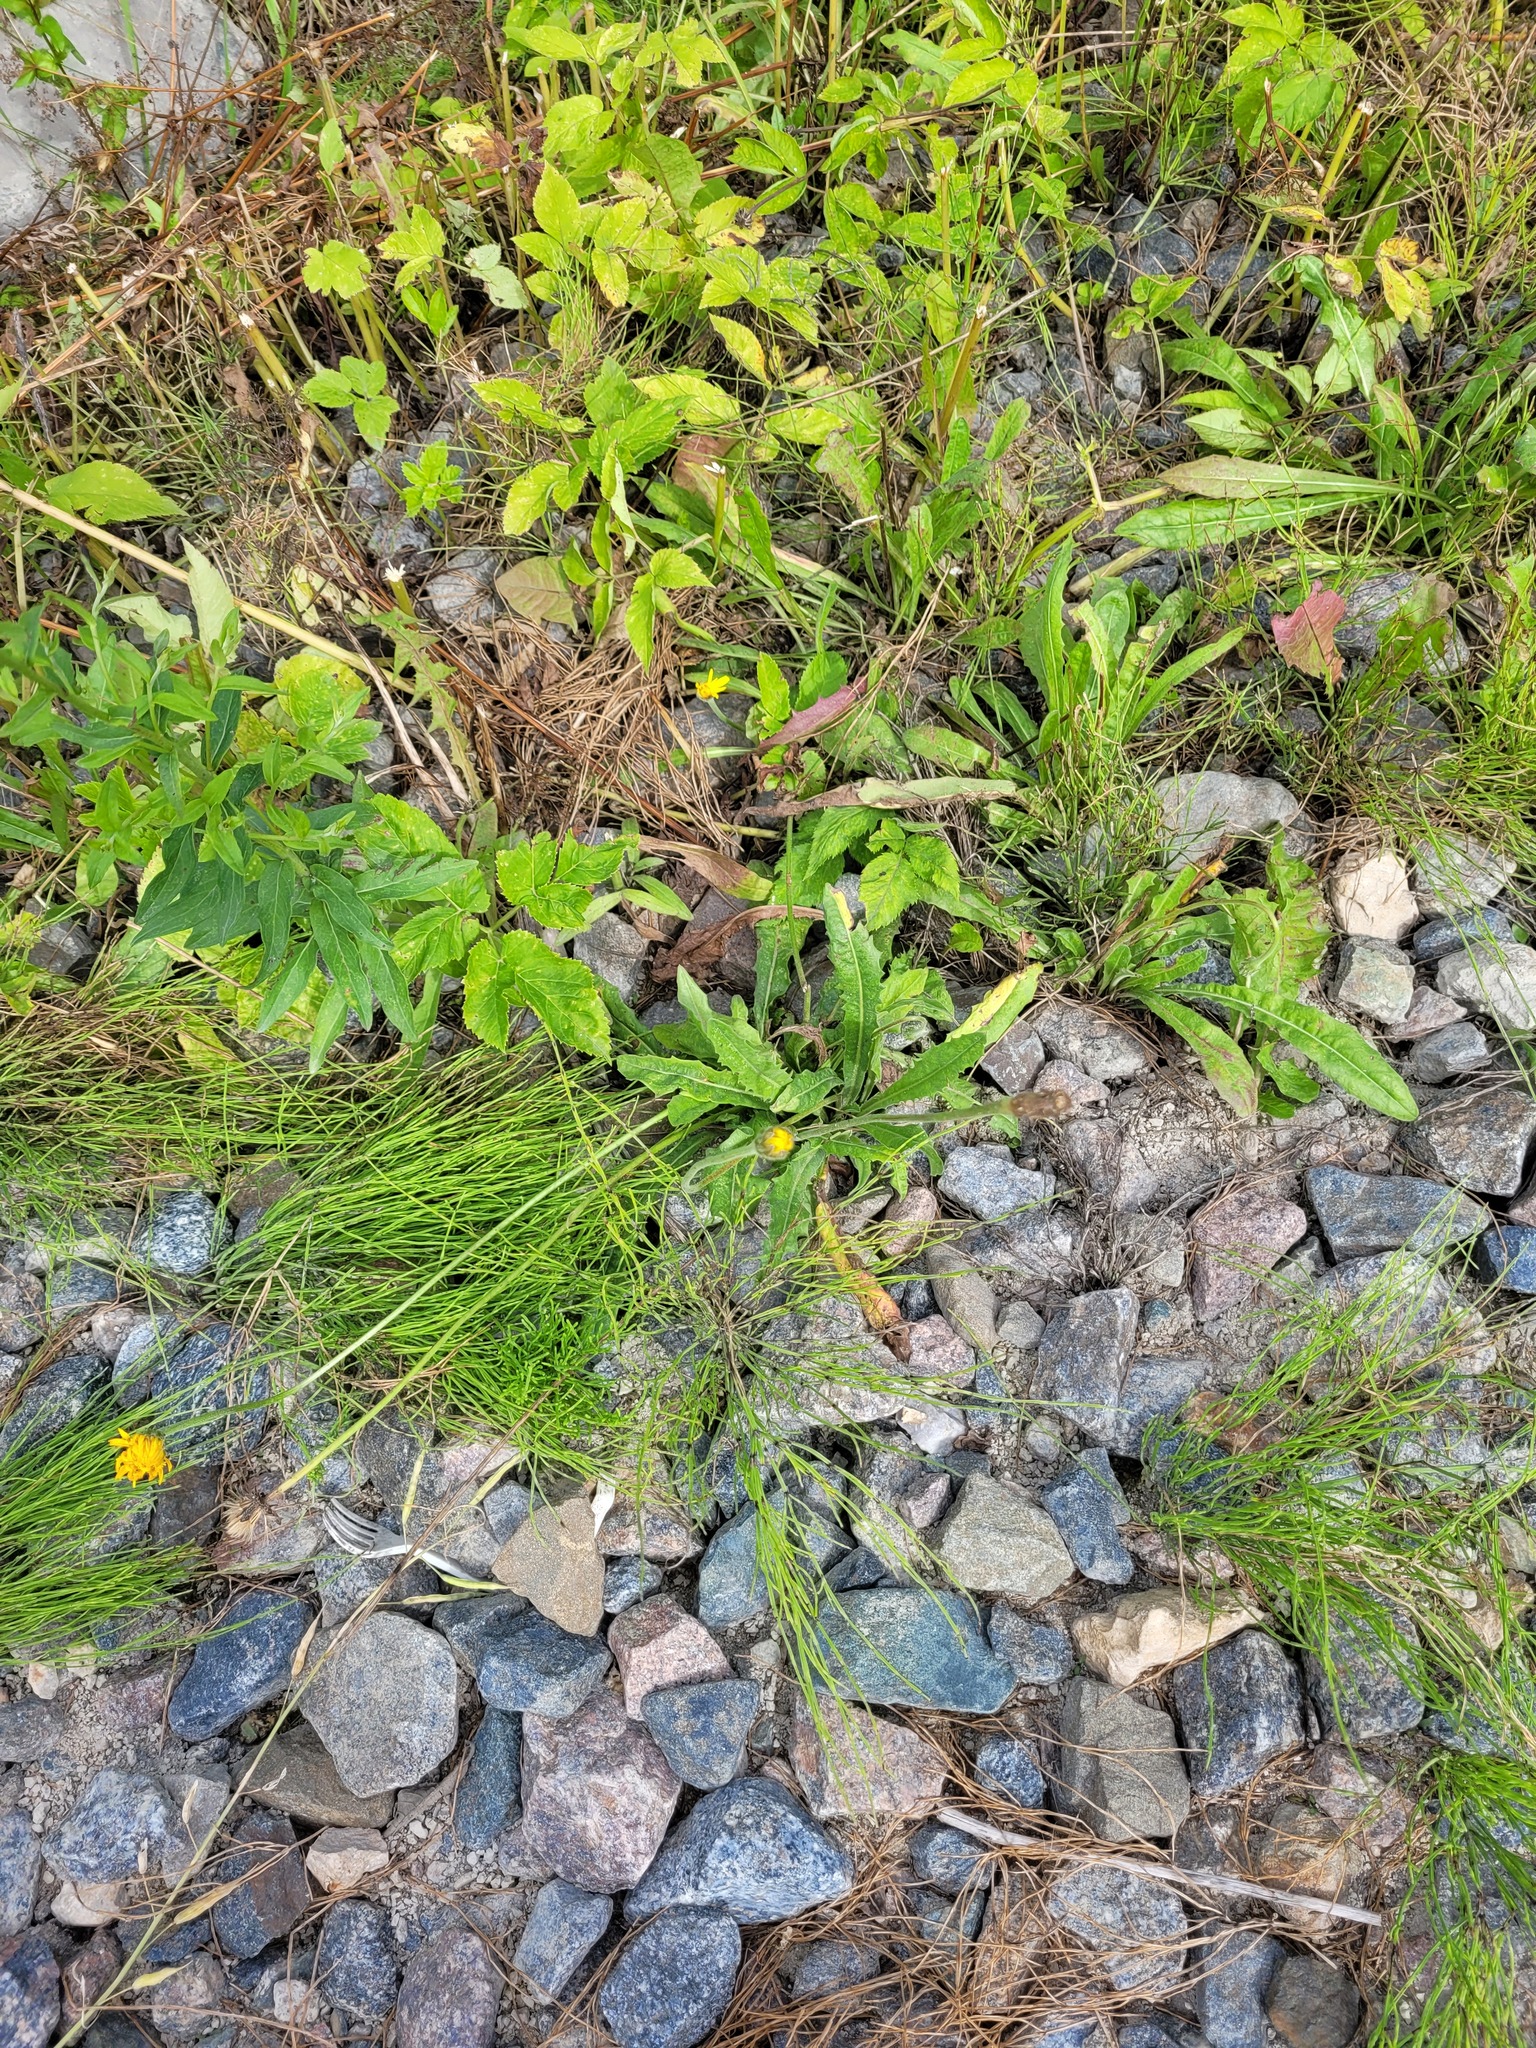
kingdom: Plantae
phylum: Tracheophyta
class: Magnoliopsida
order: Asterales
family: Asteraceae
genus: Leontodon
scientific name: Leontodon hispidus
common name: Rough hawkbit
